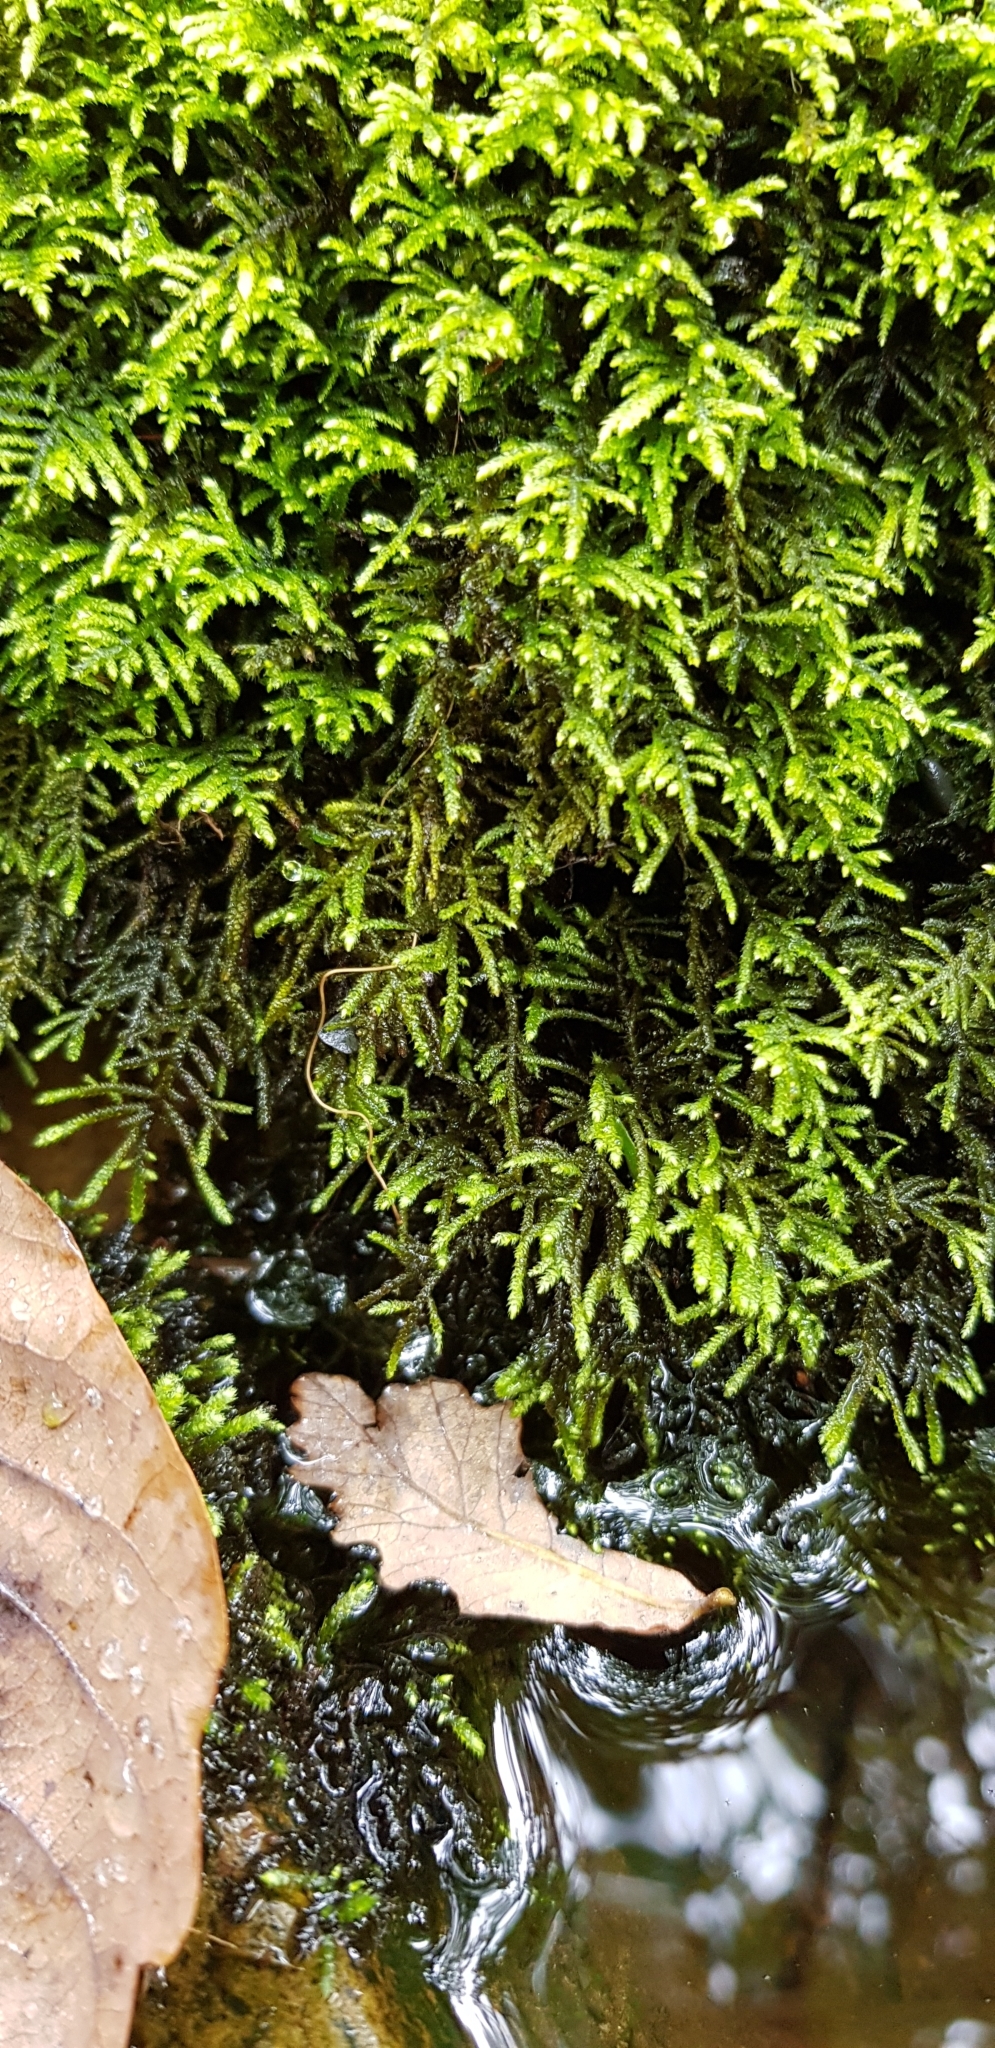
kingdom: Plantae
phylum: Bryophyta
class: Bryopsida
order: Hypnales
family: Myuriaceae
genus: Hyocomium
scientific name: Hyocomium armoricum
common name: Flagellate feather-moss
